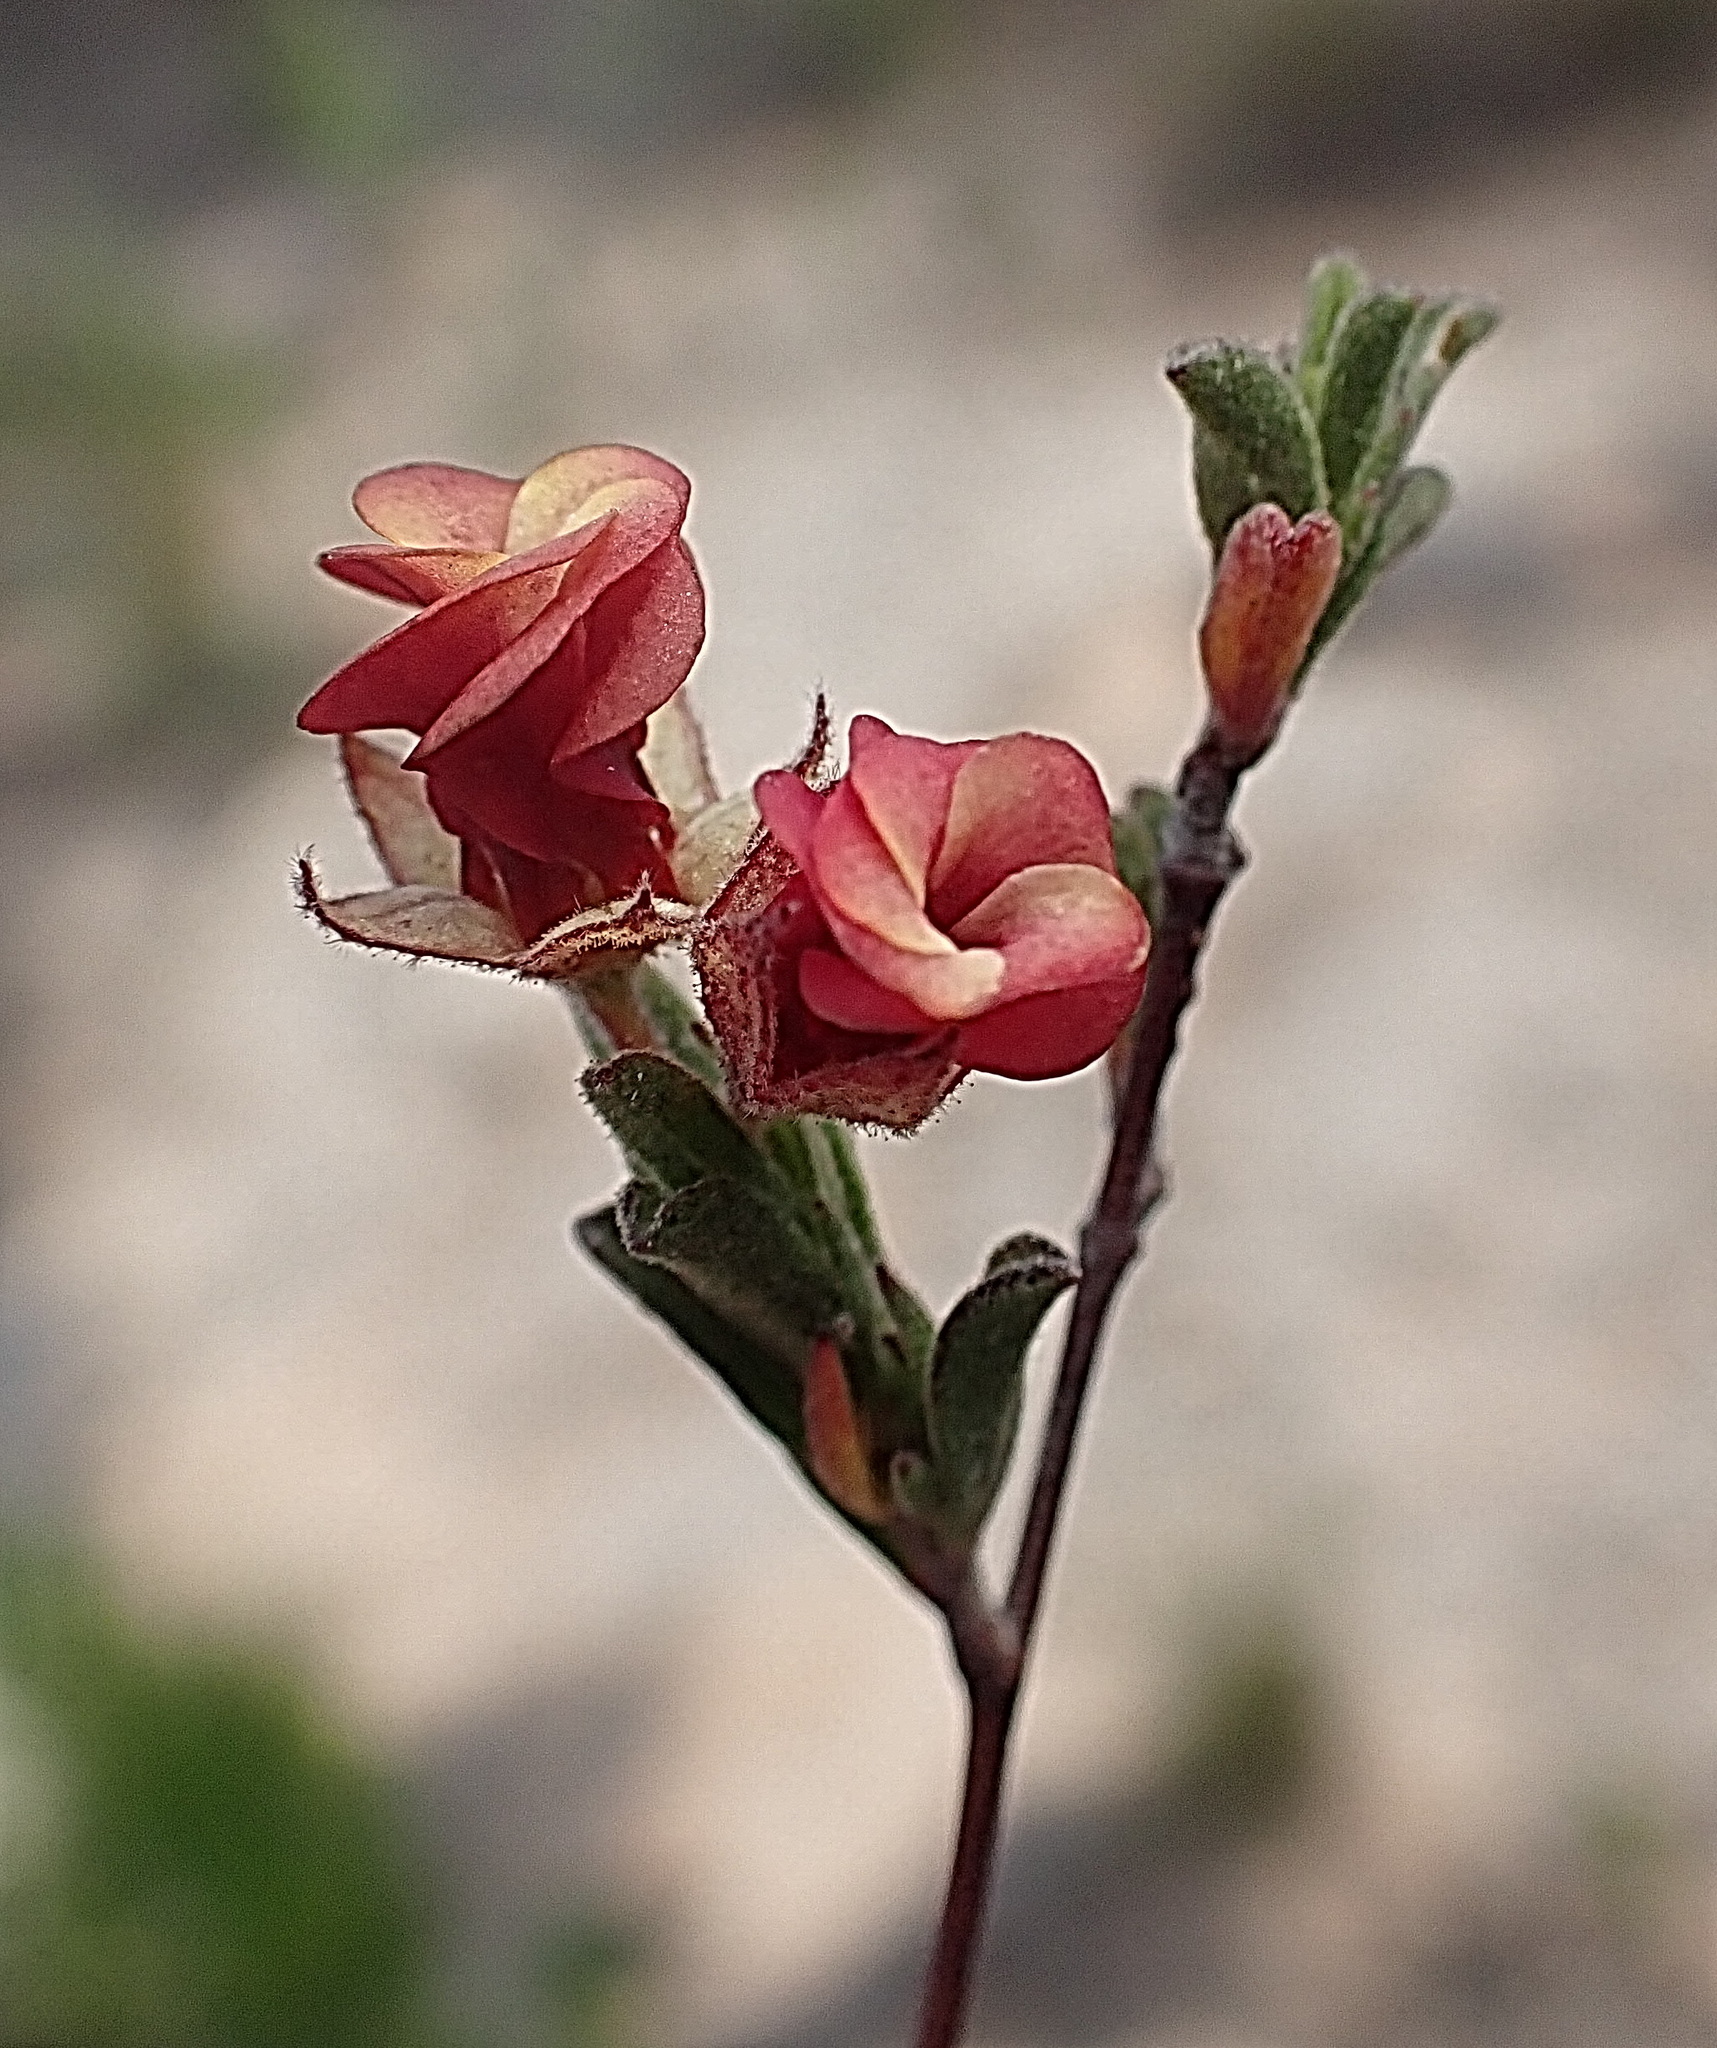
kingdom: Plantae
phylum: Tracheophyta
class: Magnoliopsida
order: Malvales
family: Malvaceae
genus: Hermannia
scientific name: Hermannia flammula
